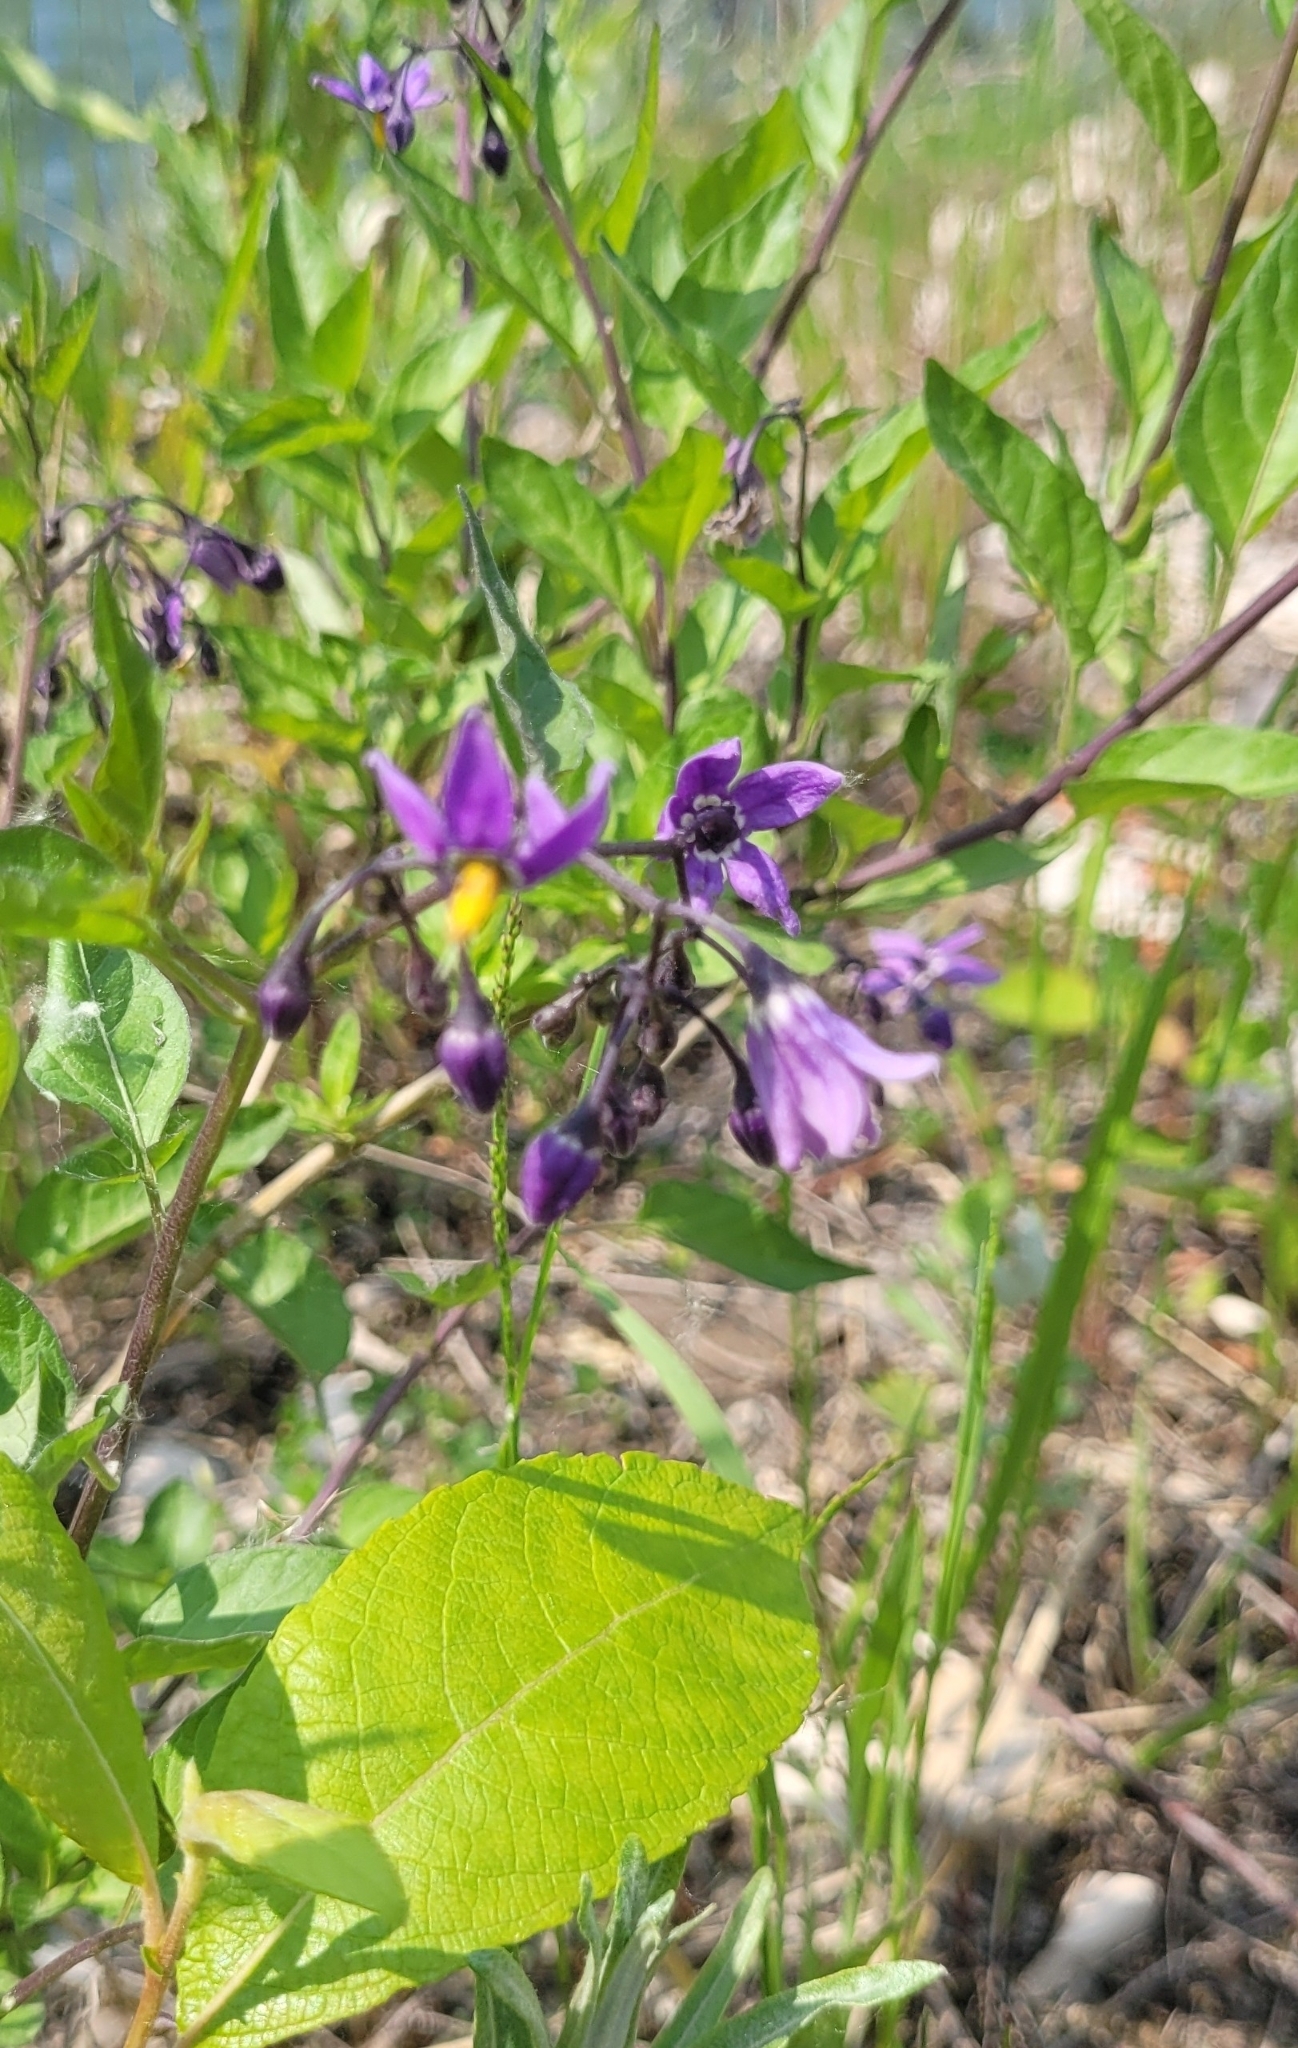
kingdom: Plantae
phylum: Tracheophyta
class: Magnoliopsida
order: Solanales
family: Solanaceae
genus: Solanum
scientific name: Solanum dulcamara
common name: Climbing nightshade
